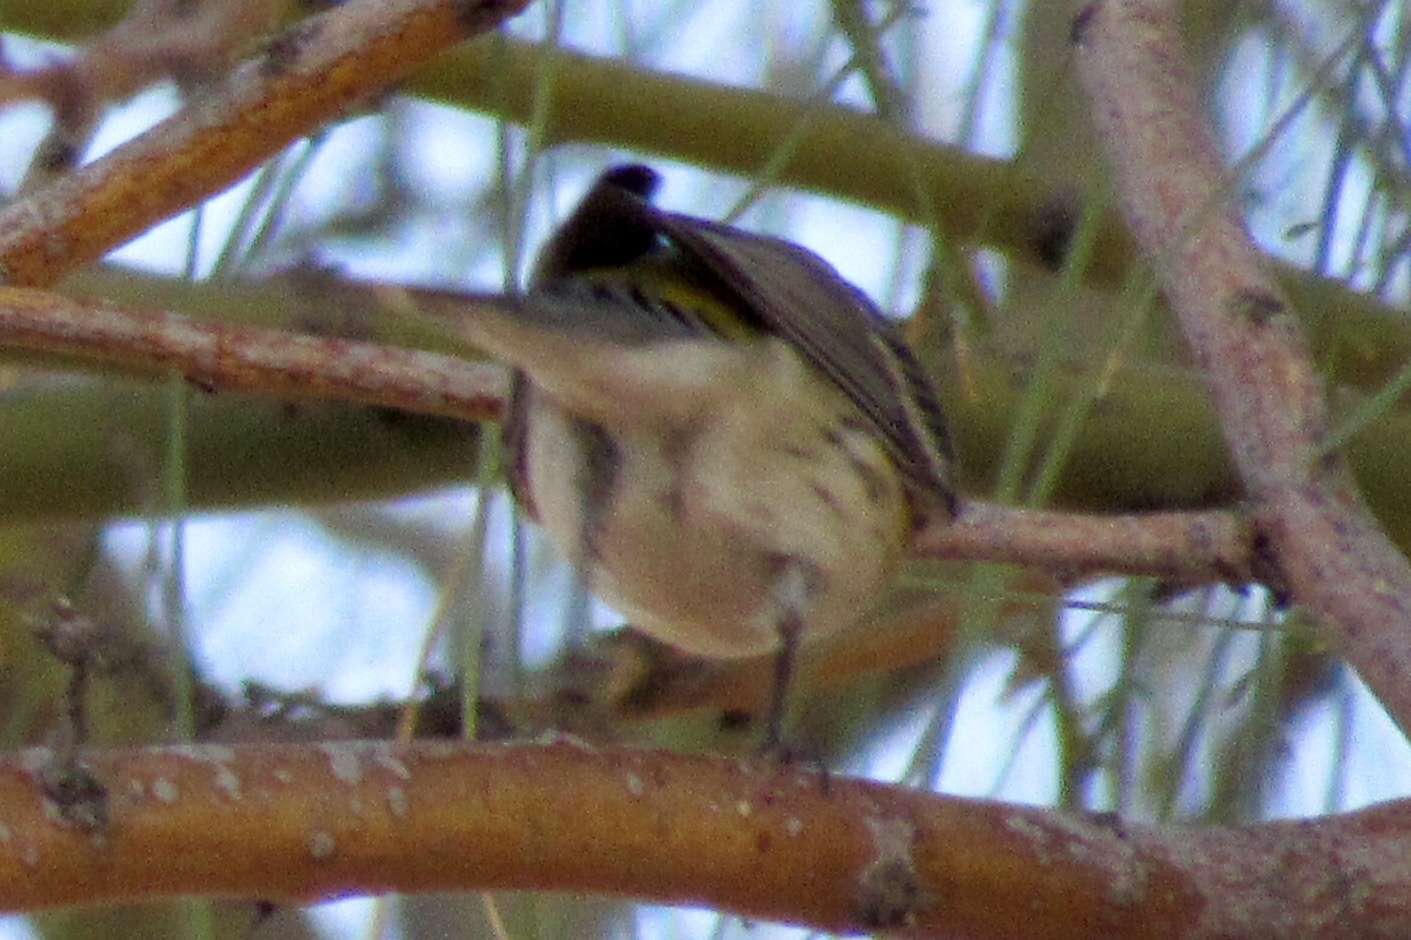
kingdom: Animalia
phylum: Chordata
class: Aves
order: Passeriformes
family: Parulidae
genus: Setophaga
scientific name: Setophaga auduboni
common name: Audubon's warbler
